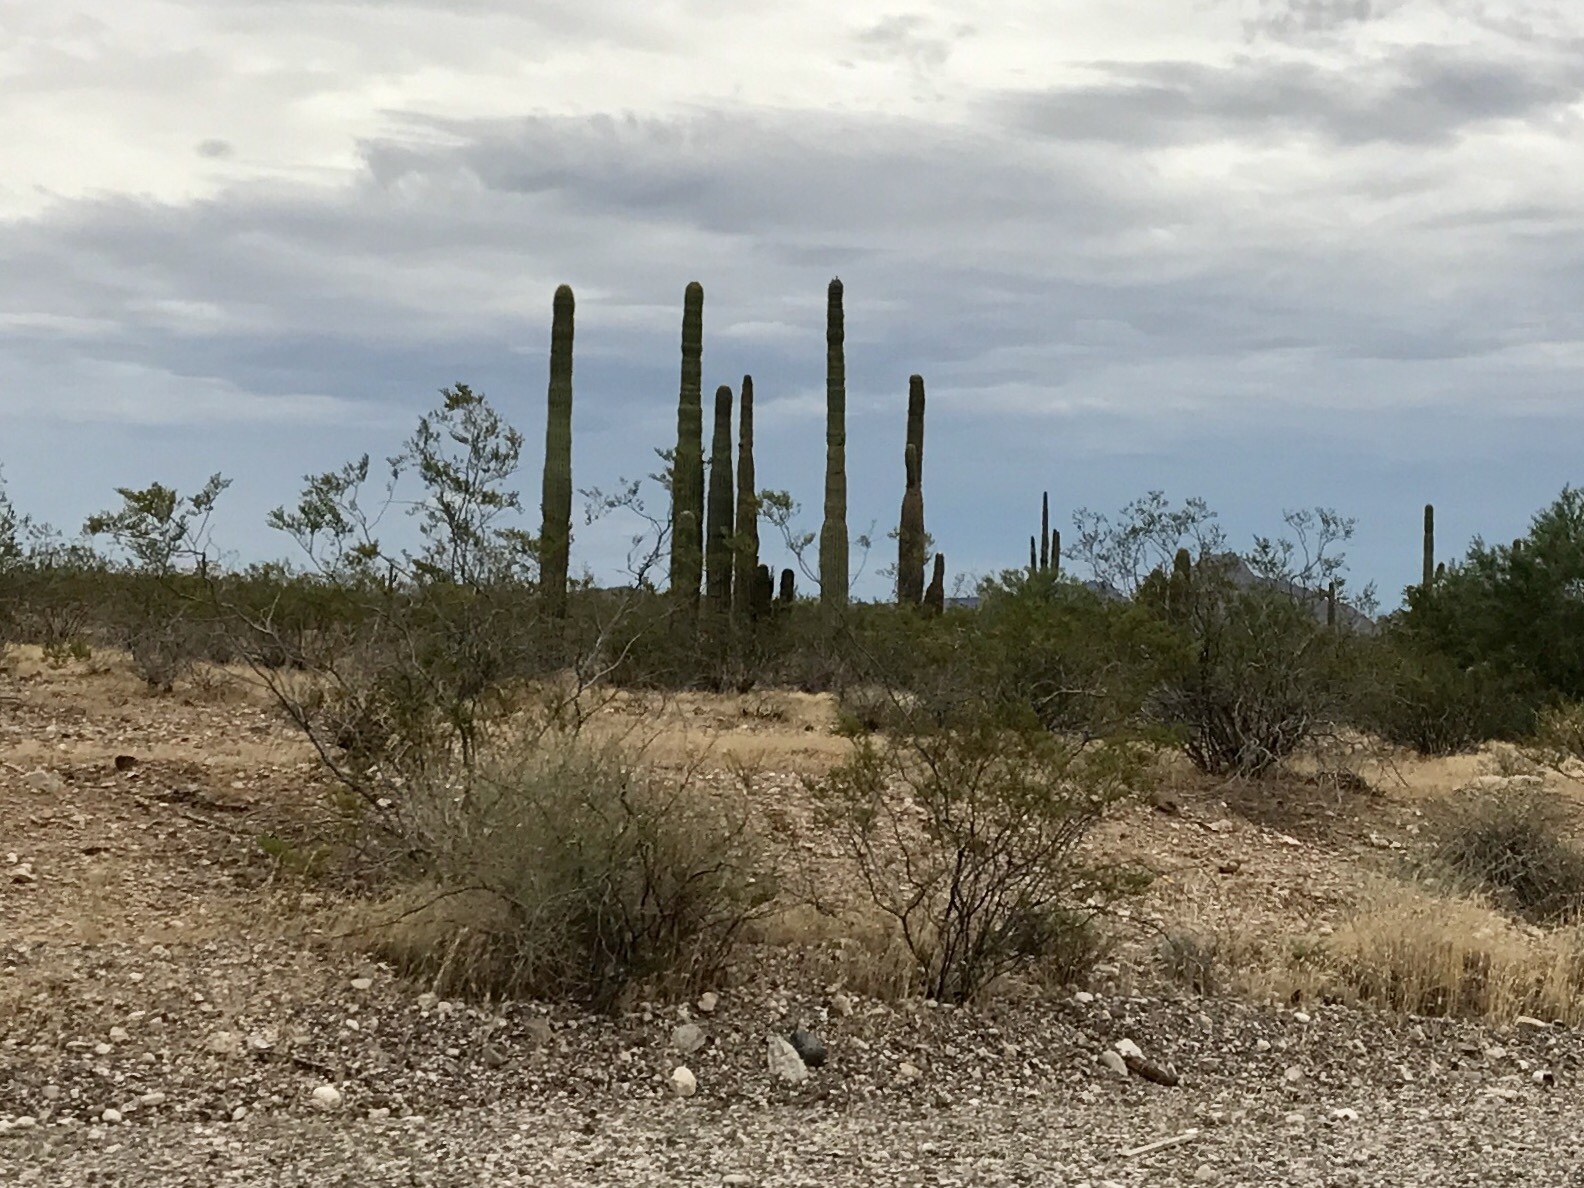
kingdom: Plantae
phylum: Tracheophyta
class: Magnoliopsida
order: Zygophyllales
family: Zygophyllaceae
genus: Larrea
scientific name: Larrea tridentata
